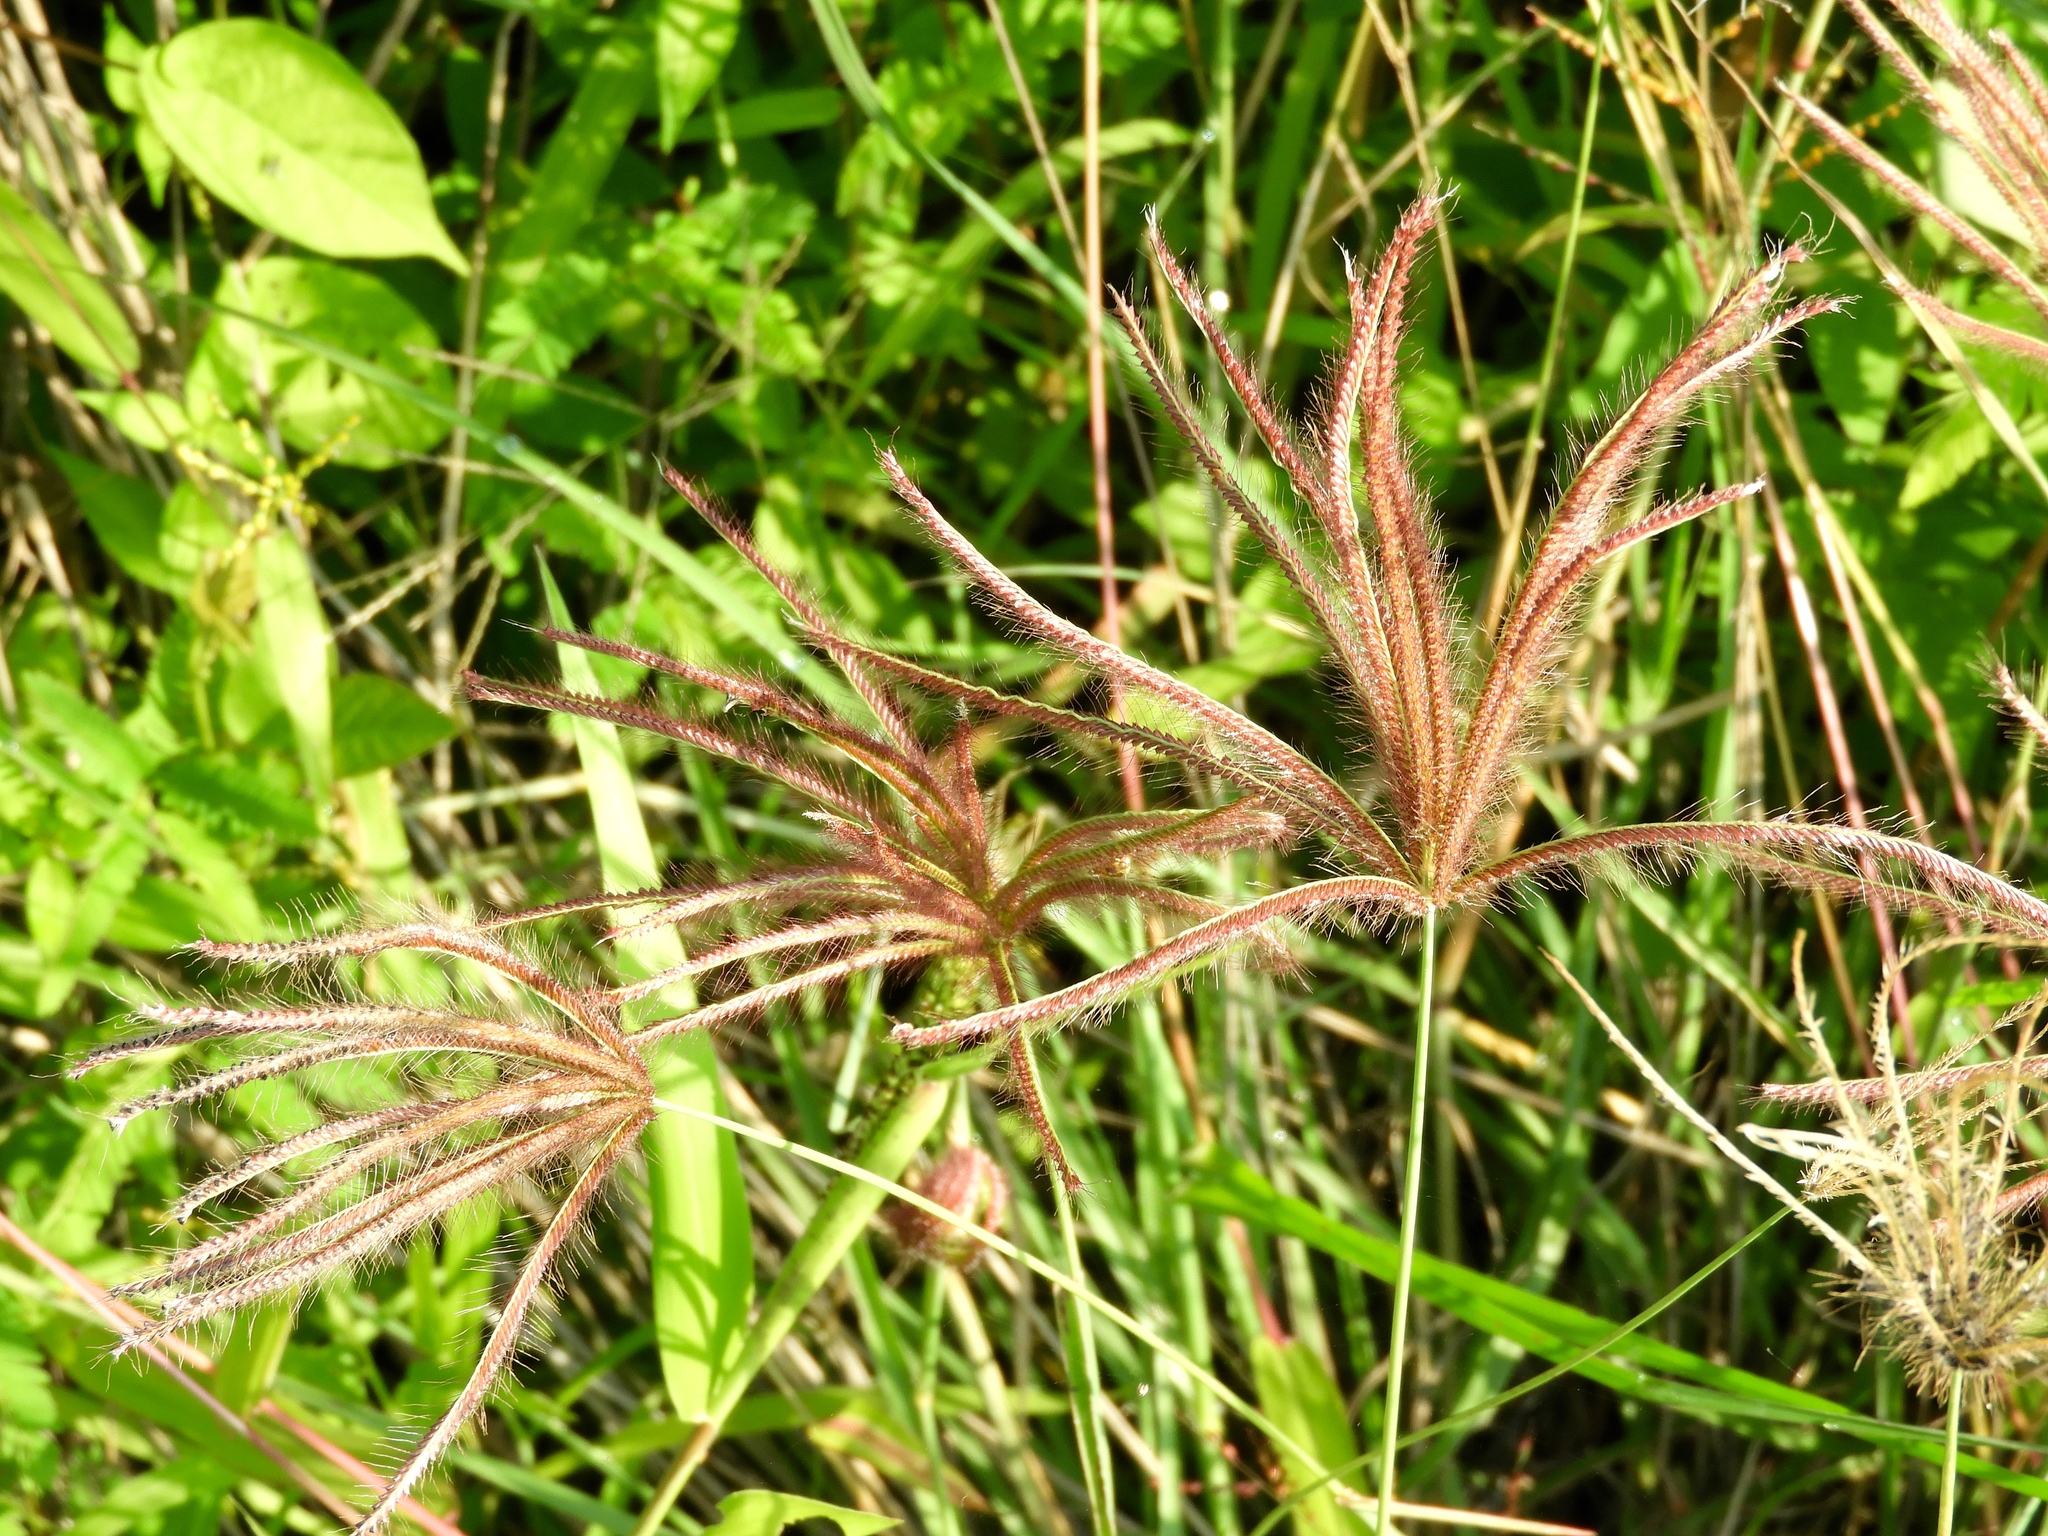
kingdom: Plantae
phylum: Tracheophyta
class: Liliopsida
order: Poales
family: Poaceae
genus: Chloris
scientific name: Chloris gayana
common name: Rhodes grass
